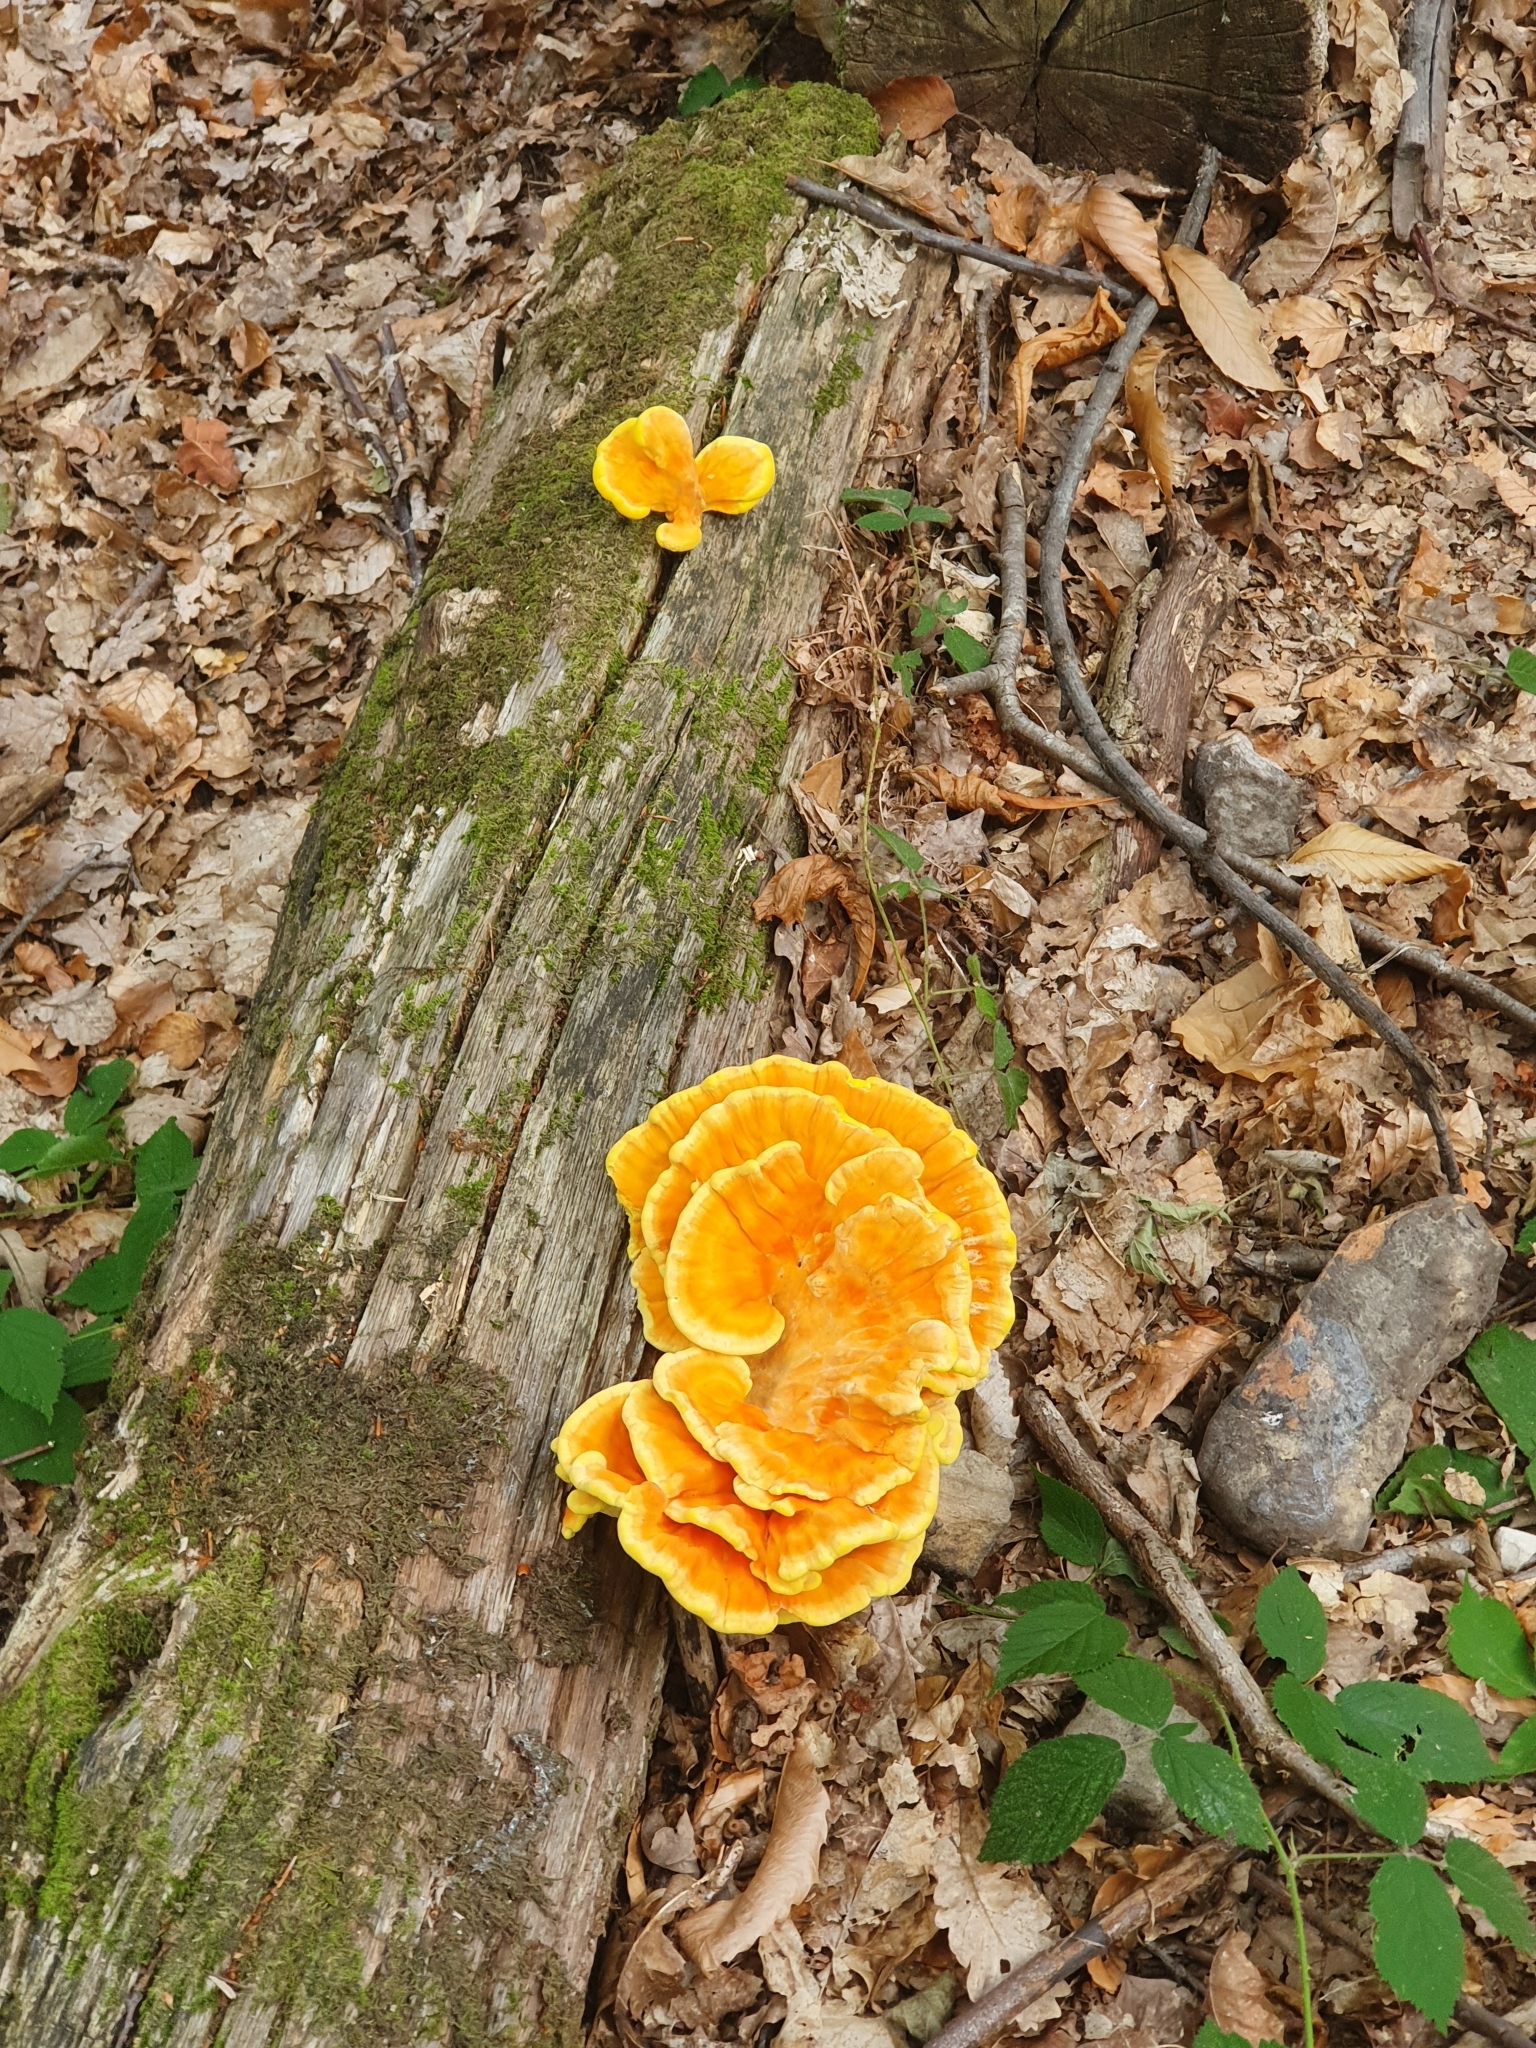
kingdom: Fungi
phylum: Basidiomycota
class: Agaricomycetes
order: Polyporales
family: Laetiporaceae
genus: Laetiporus
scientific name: Laetiporus sulphureus
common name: Chicken of the woods
